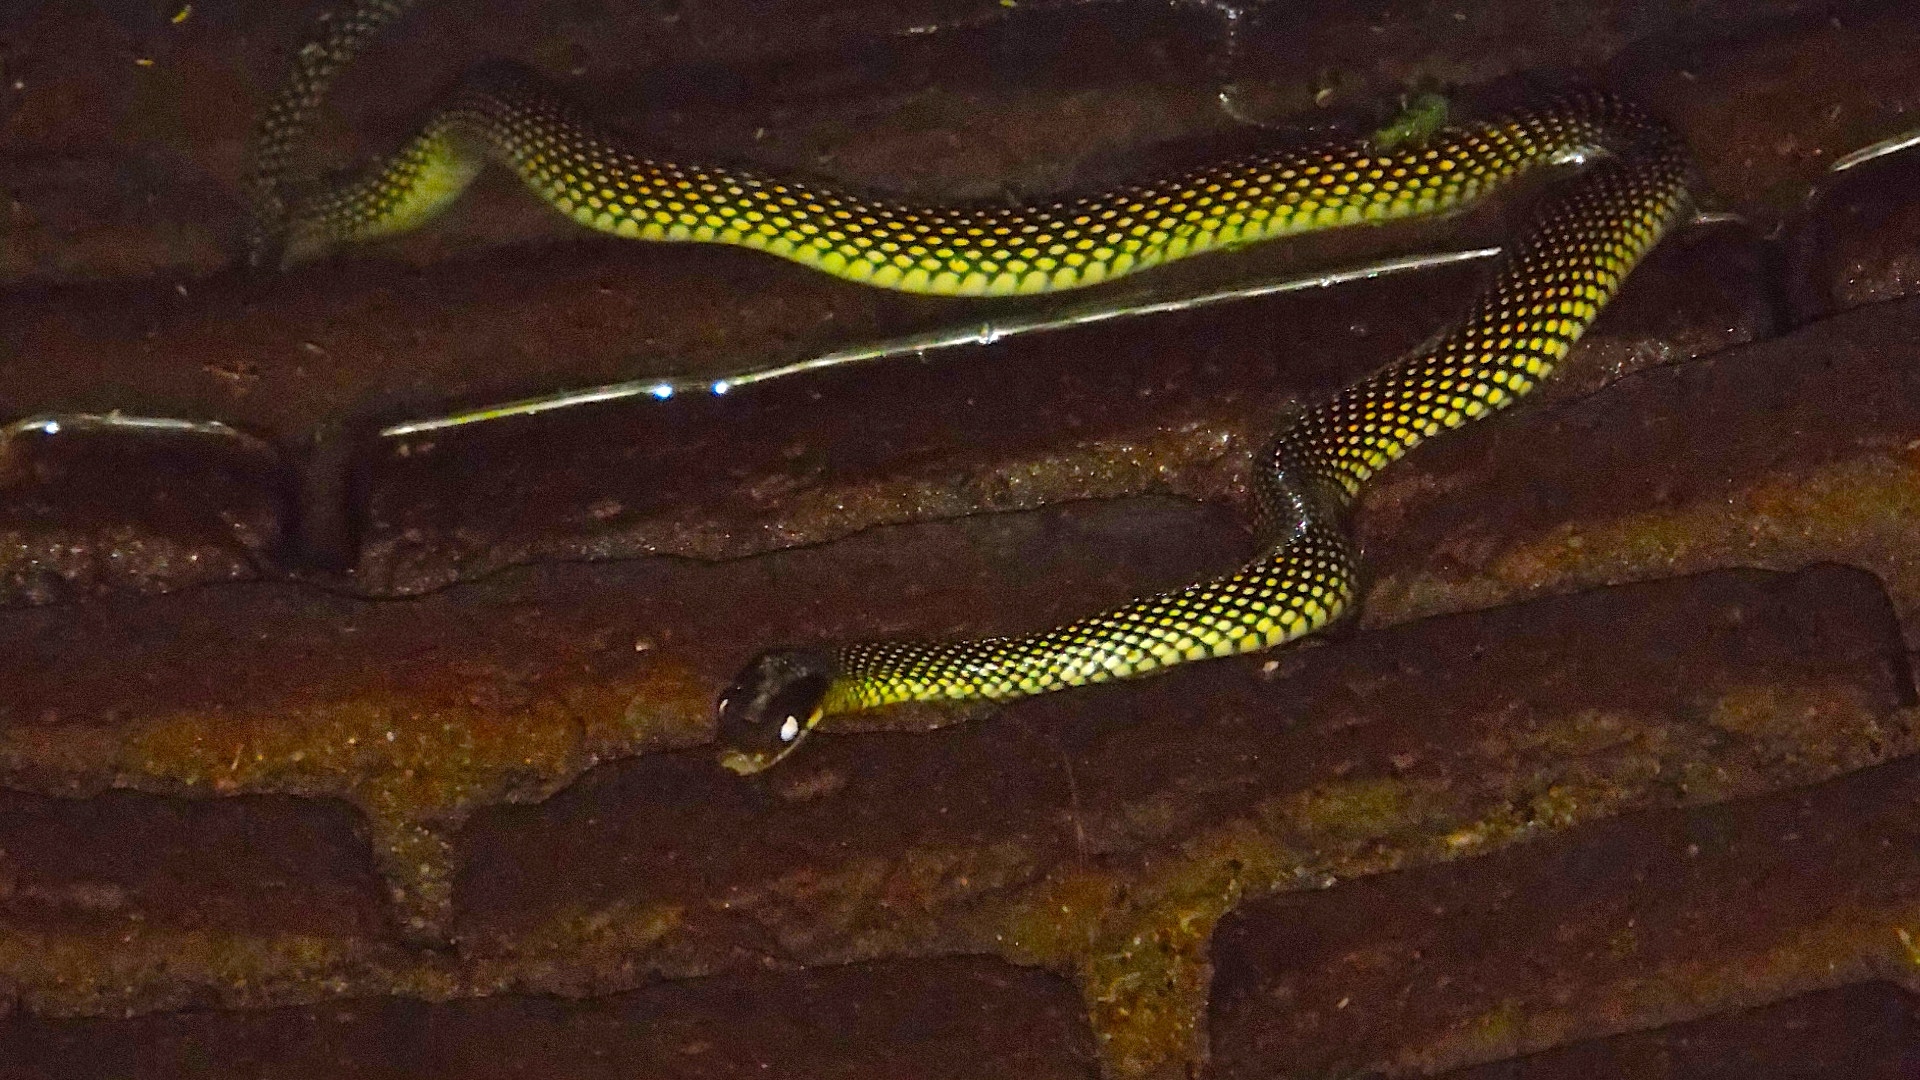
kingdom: Animalia
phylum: Chordata
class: Squamata
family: Colubridae
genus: Drymobius
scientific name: Drymobius margaritiferus
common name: Central american speckled racer
